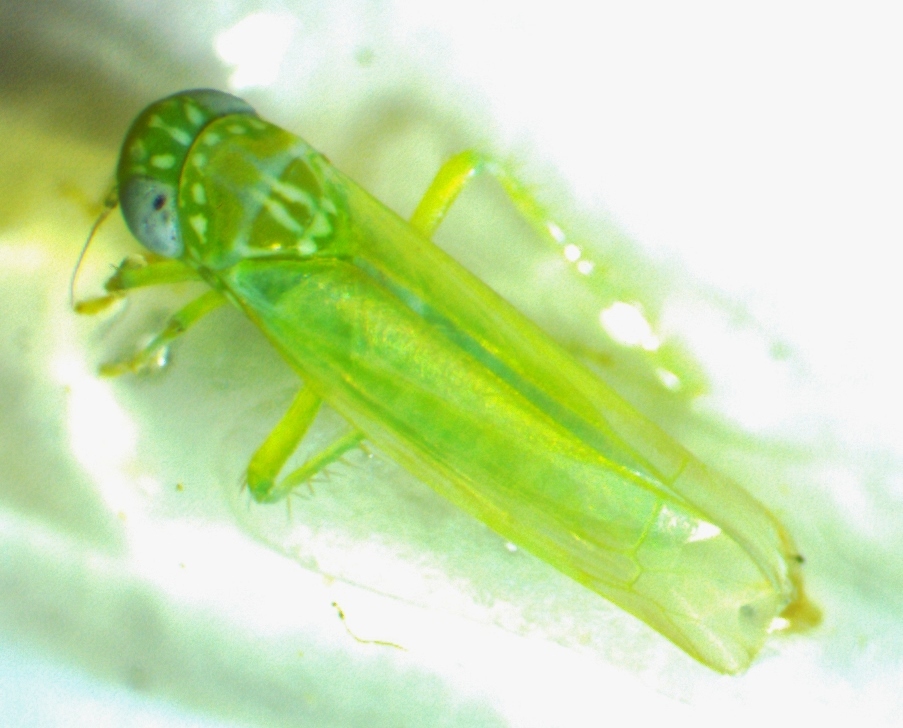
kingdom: Animalia
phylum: Arthropoda
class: Insecta
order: Hemiptera
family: Cicadellidae
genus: Empoasca
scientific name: Empoasca fabae
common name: Potato leafhopper
